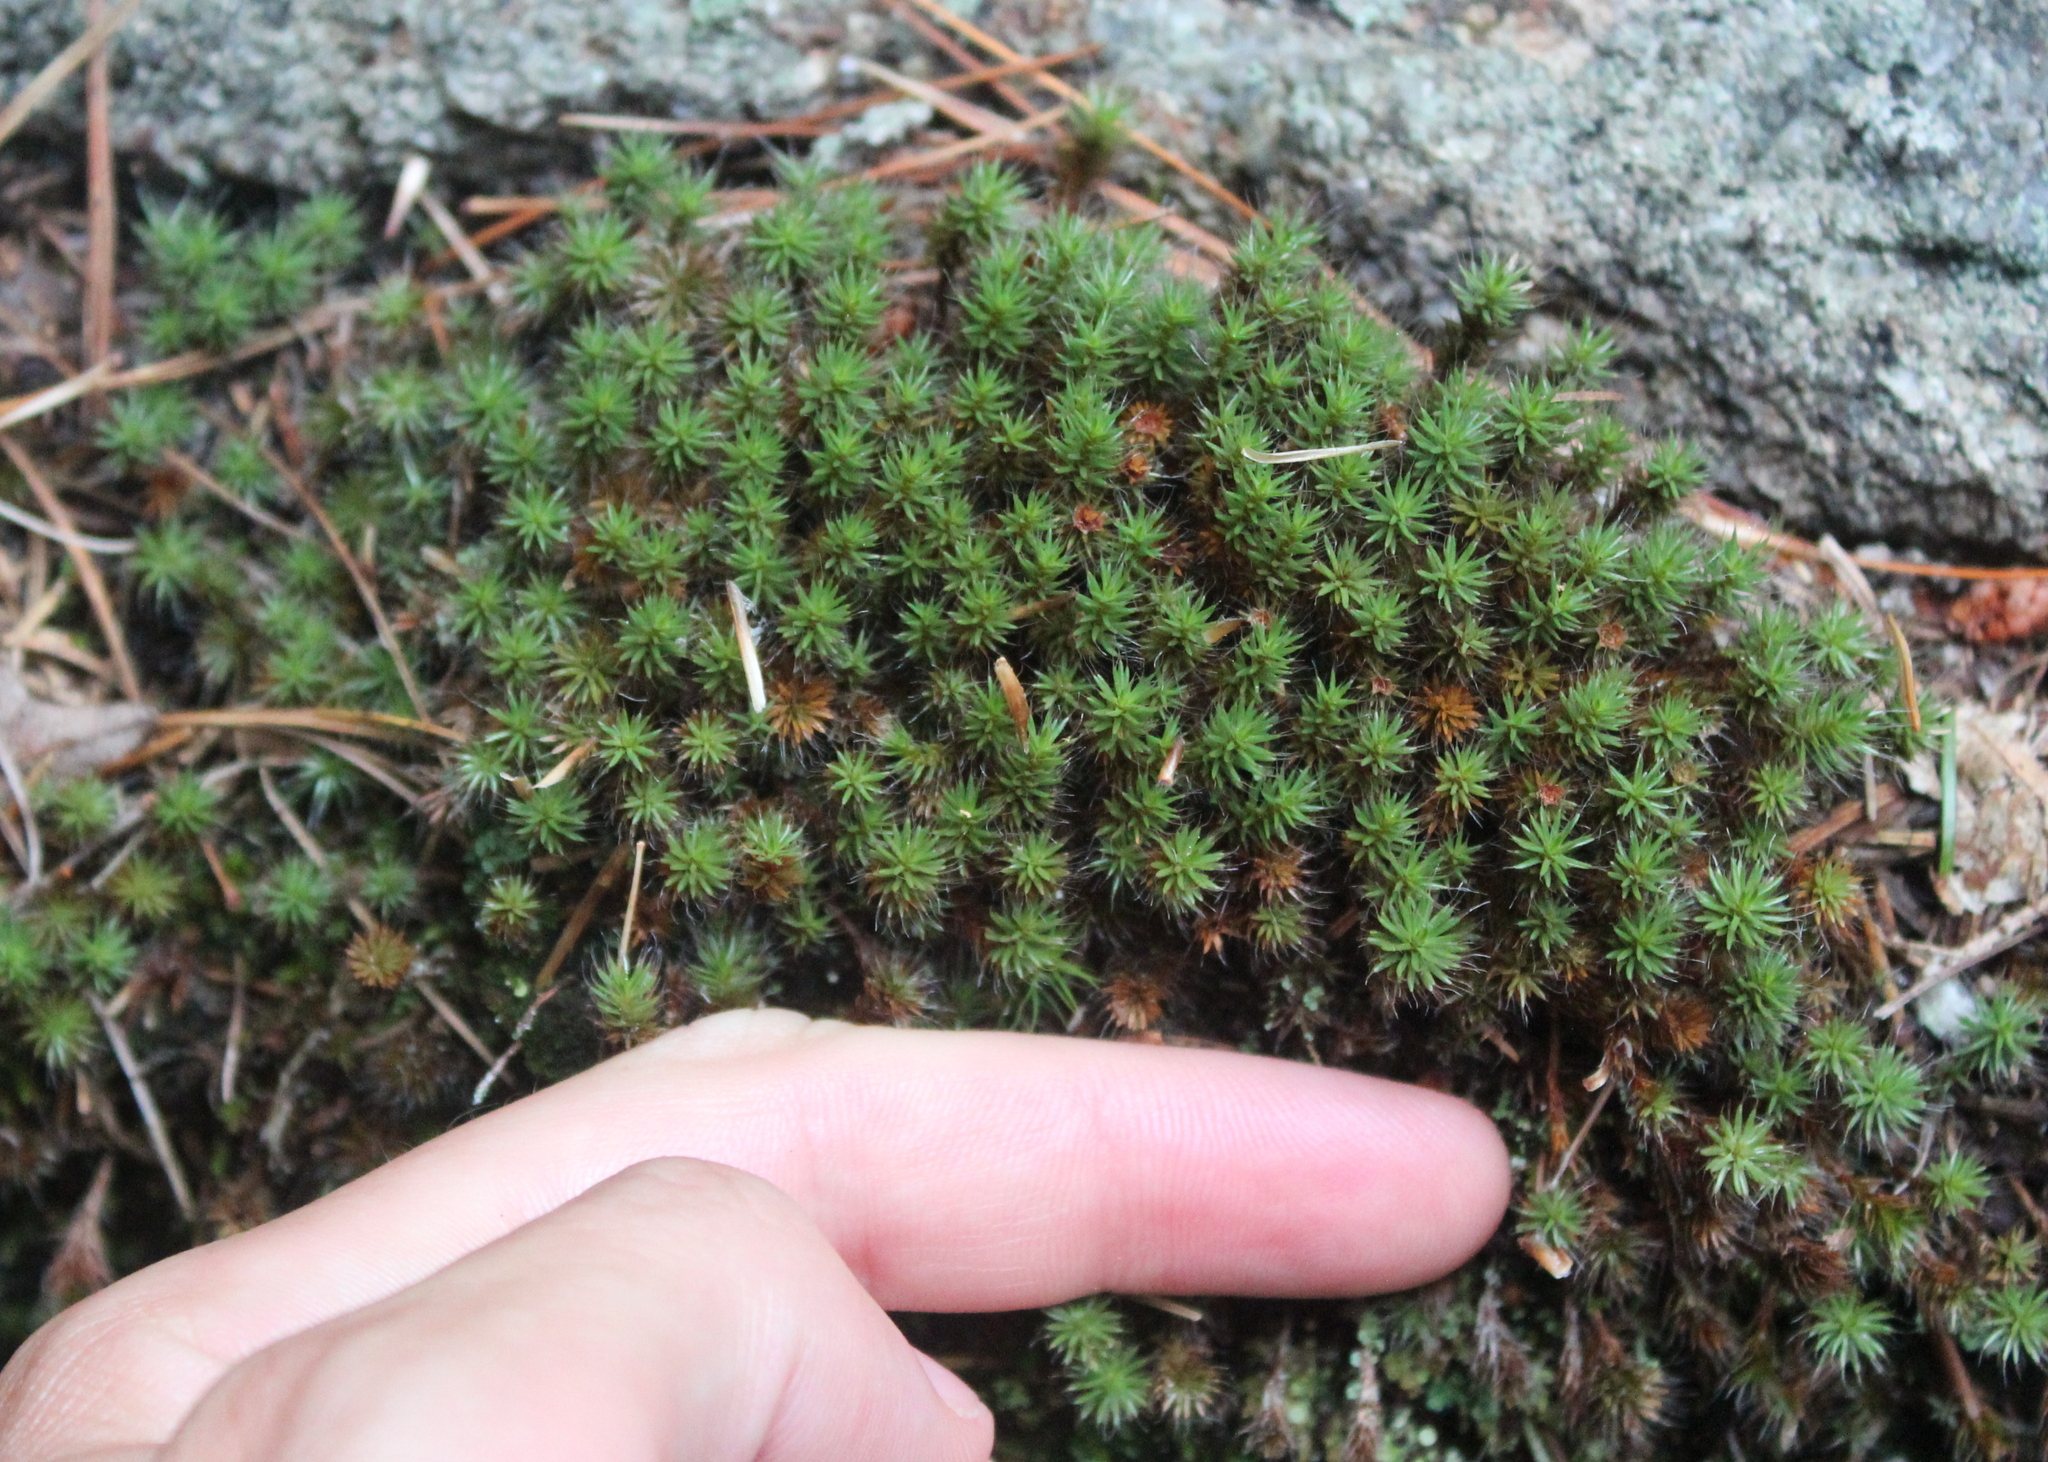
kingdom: Plantae
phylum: Bryophyta
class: Polytrichopsida
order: Polytrichales
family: Polytrichaceae
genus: Polytrichum
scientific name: Polytrichum piliferum
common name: Bristly haircap
